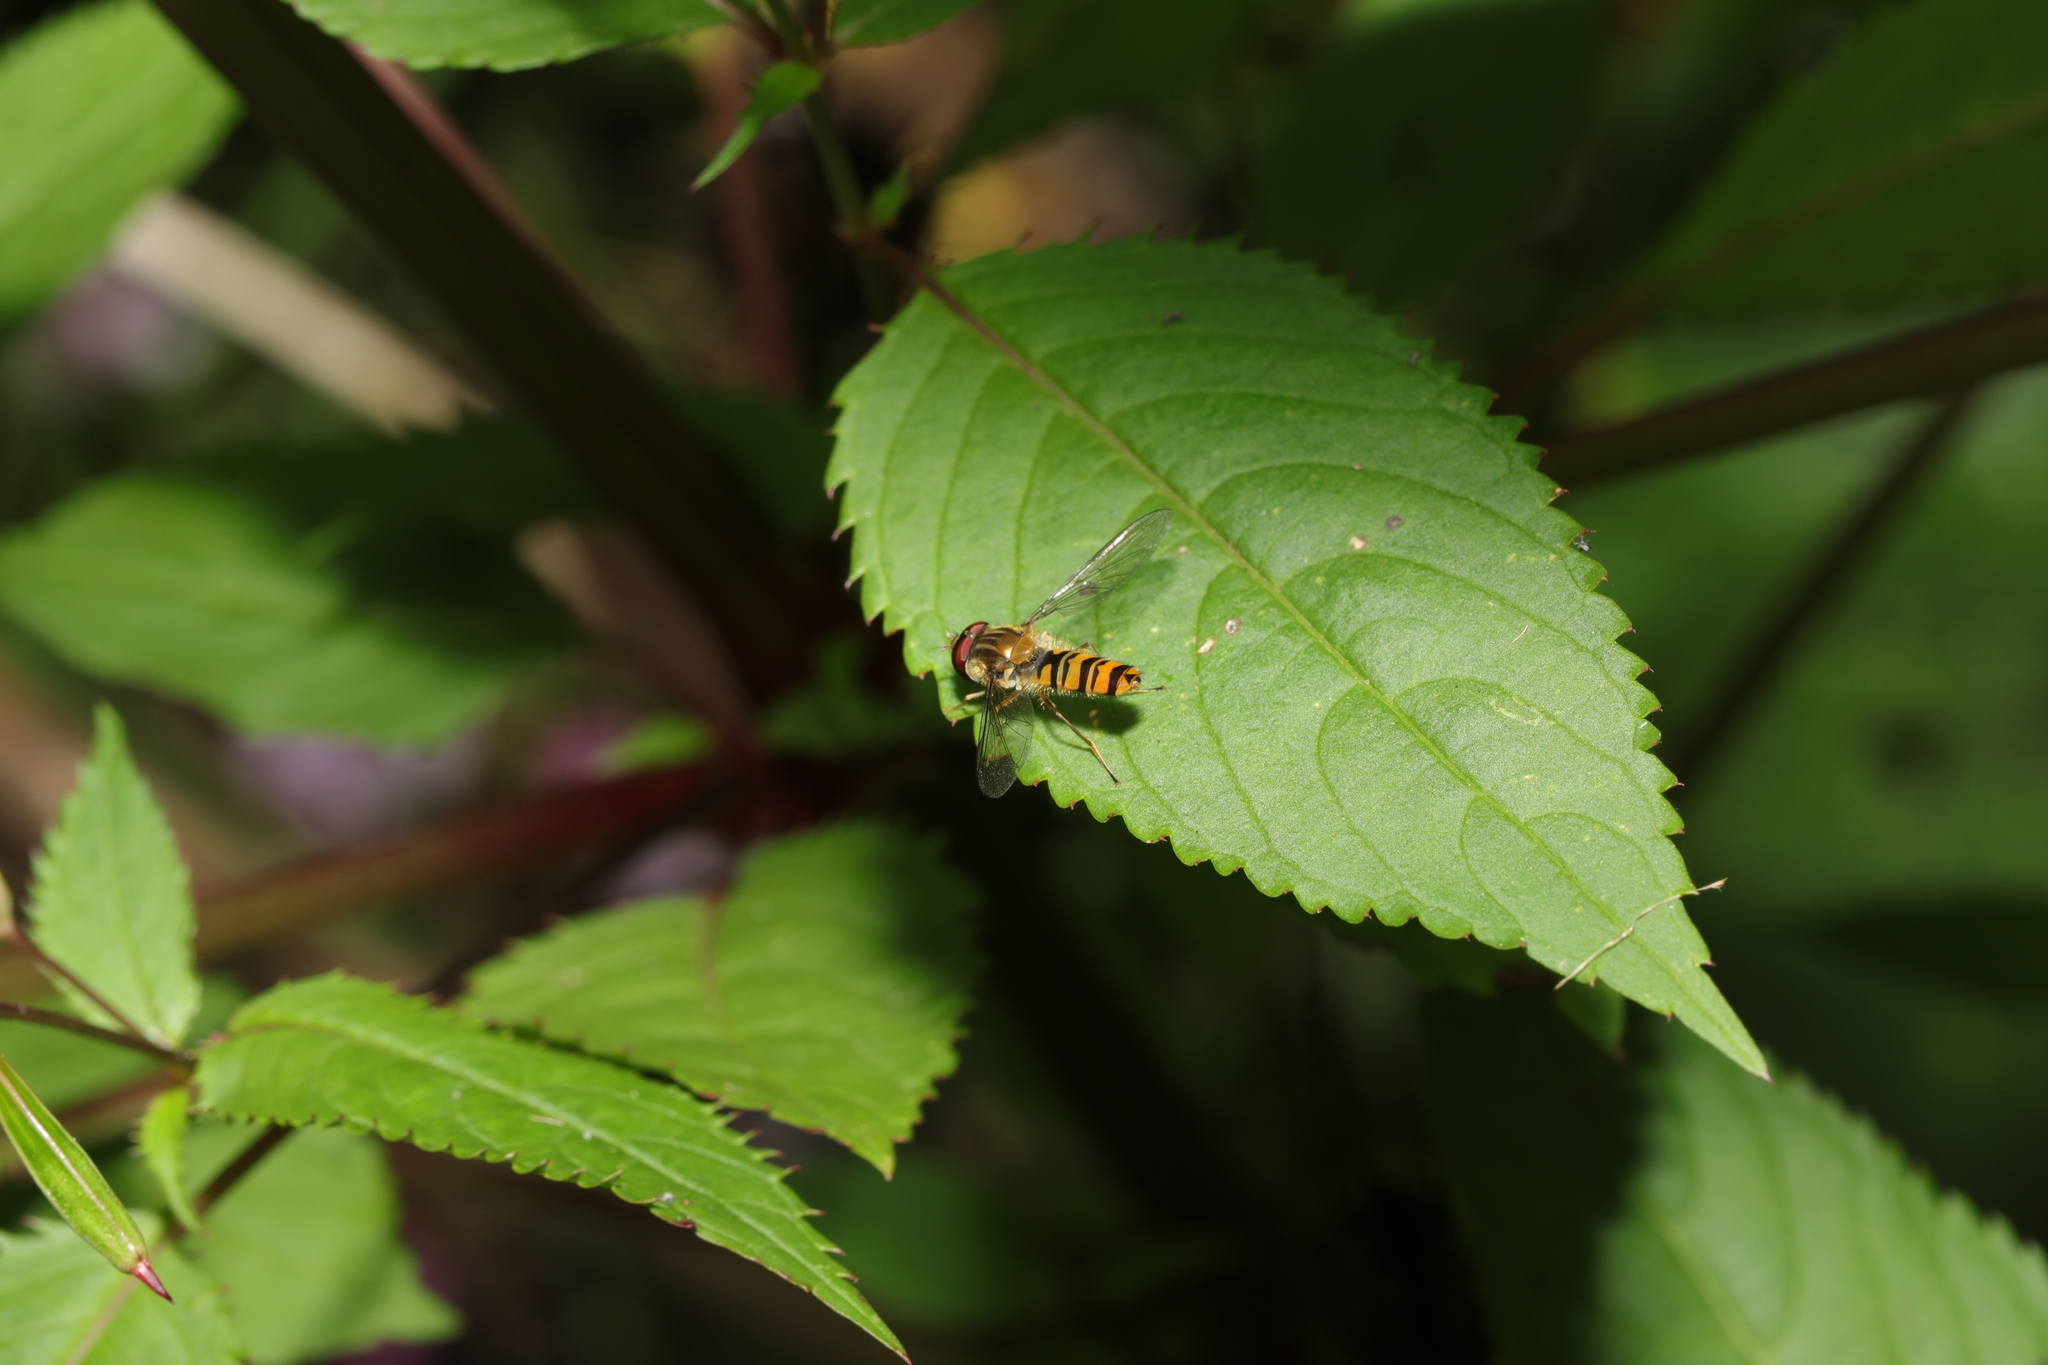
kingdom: Animalia
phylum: Arthropoda
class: Insecta
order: Diptera
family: Syrphidae
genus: Episyrphus
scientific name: Episyrphus balteatus
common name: Marmalade hoverfly
